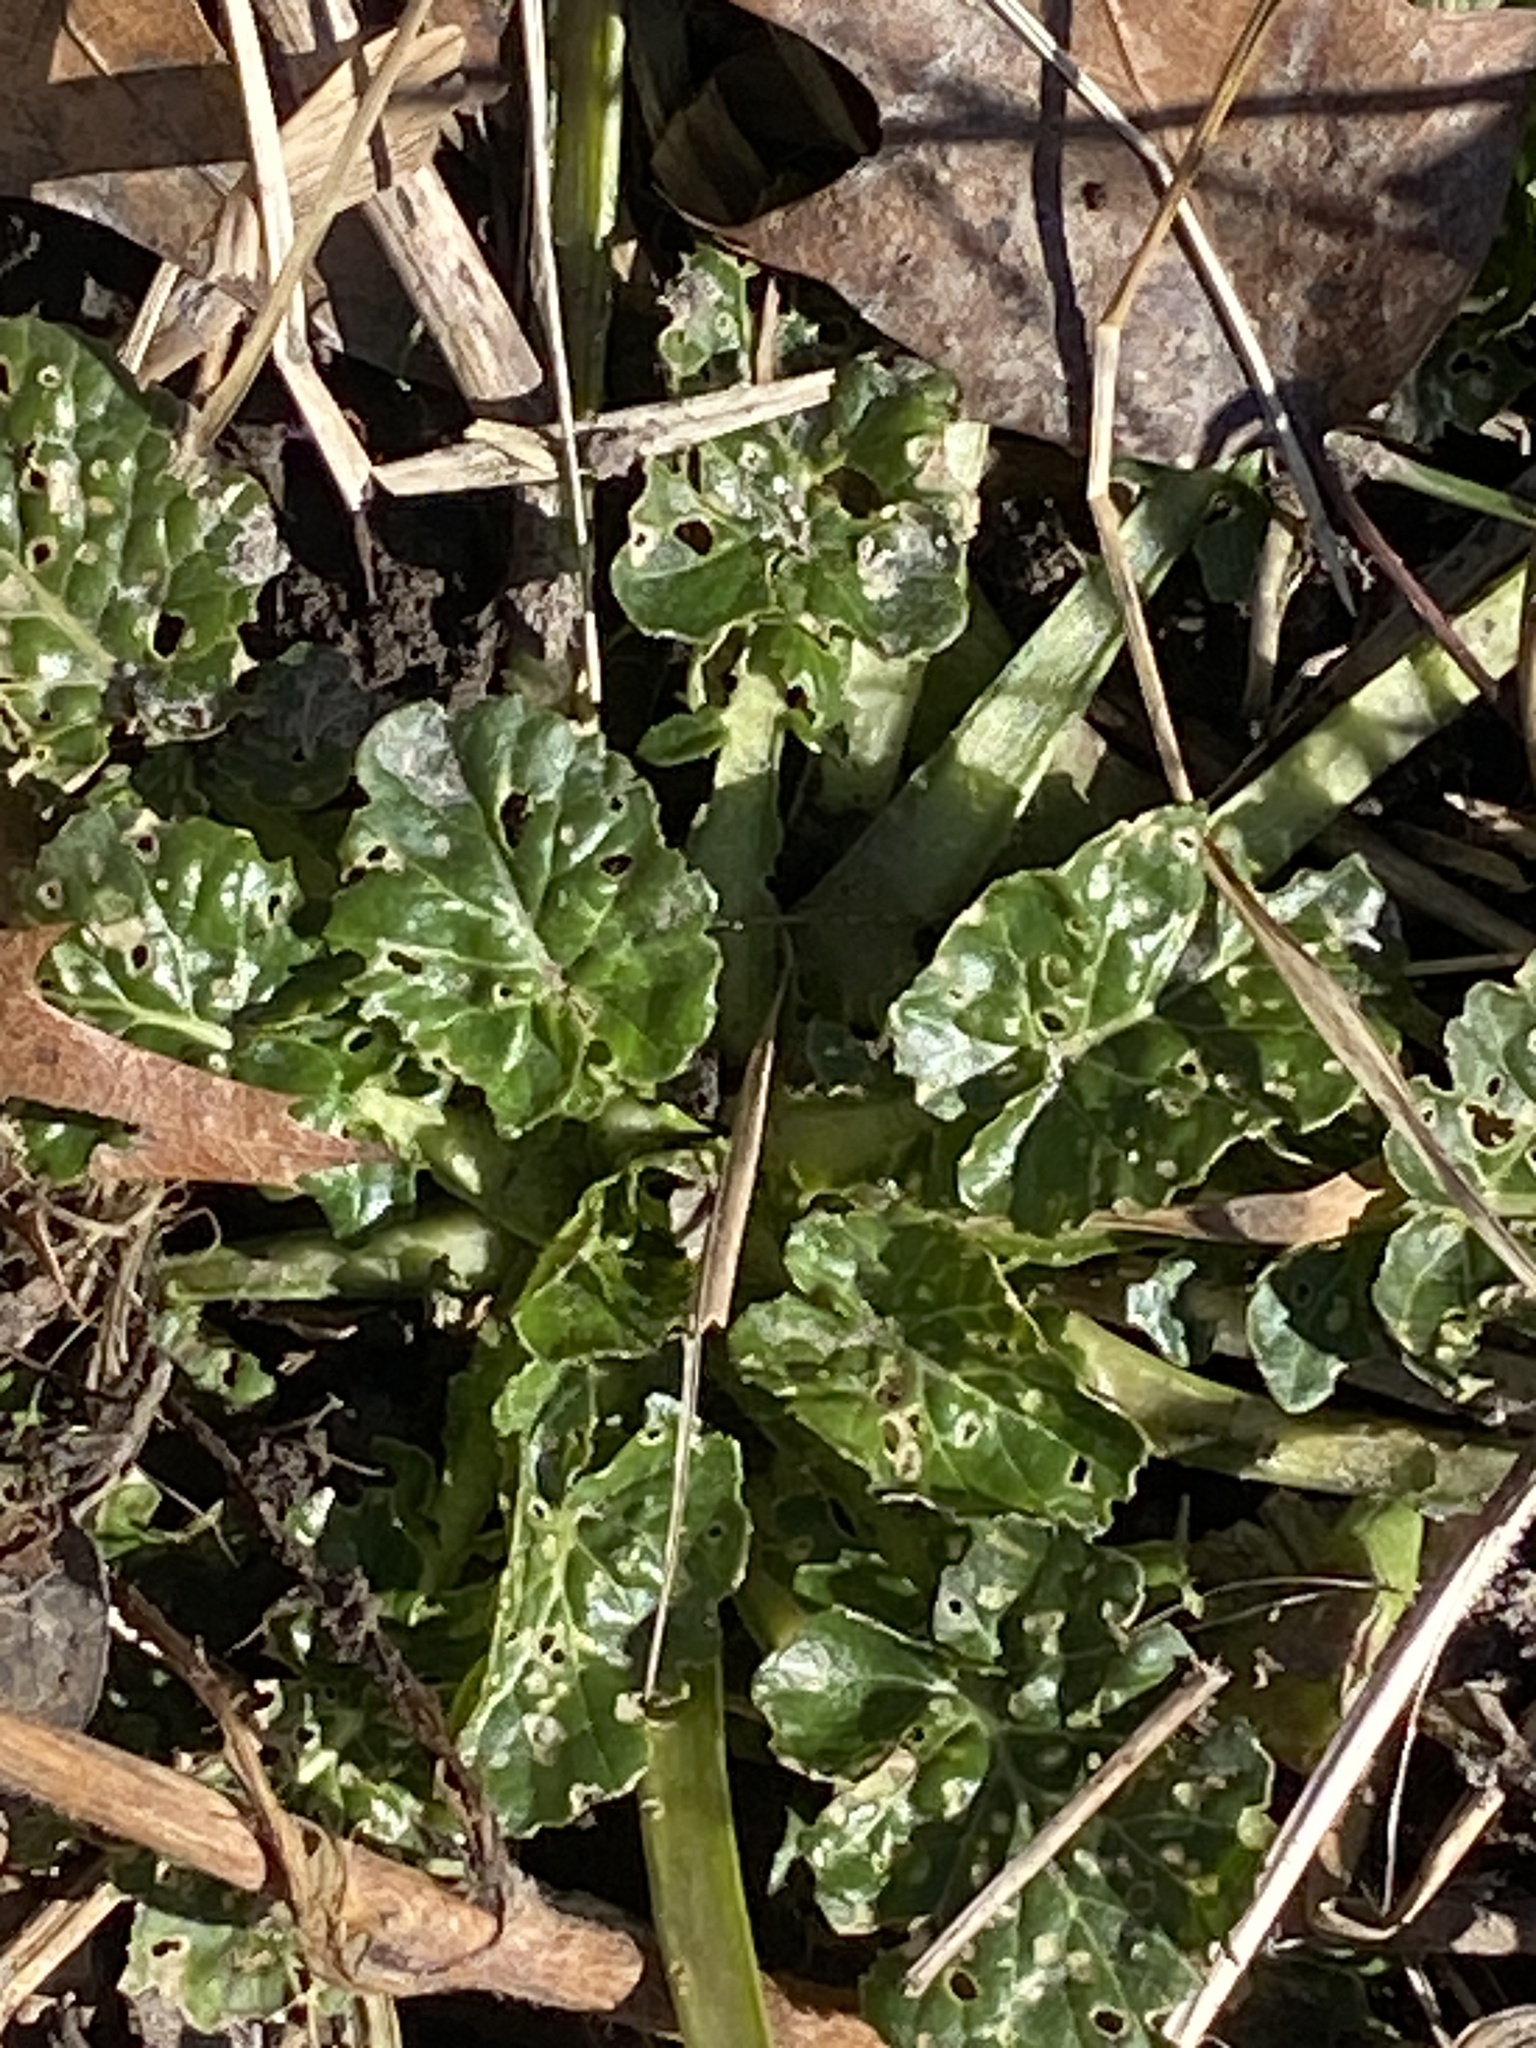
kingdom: Plantae
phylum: Tracheophyta
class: Magnoliopsida
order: Brassicales
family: Brassicaceae
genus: Barbarea
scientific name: Barbarea vulgaris
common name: Cressy-greens
